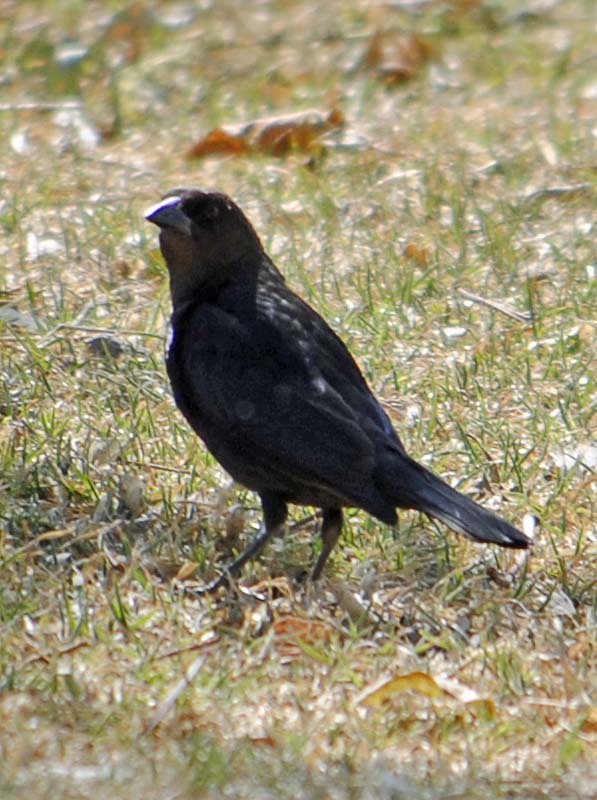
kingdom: Animalia
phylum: Chordata
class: Aves
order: Passeriformes
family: Icteridae
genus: Molothrus
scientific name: Molothrus ater
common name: Brown-headed cowbird
